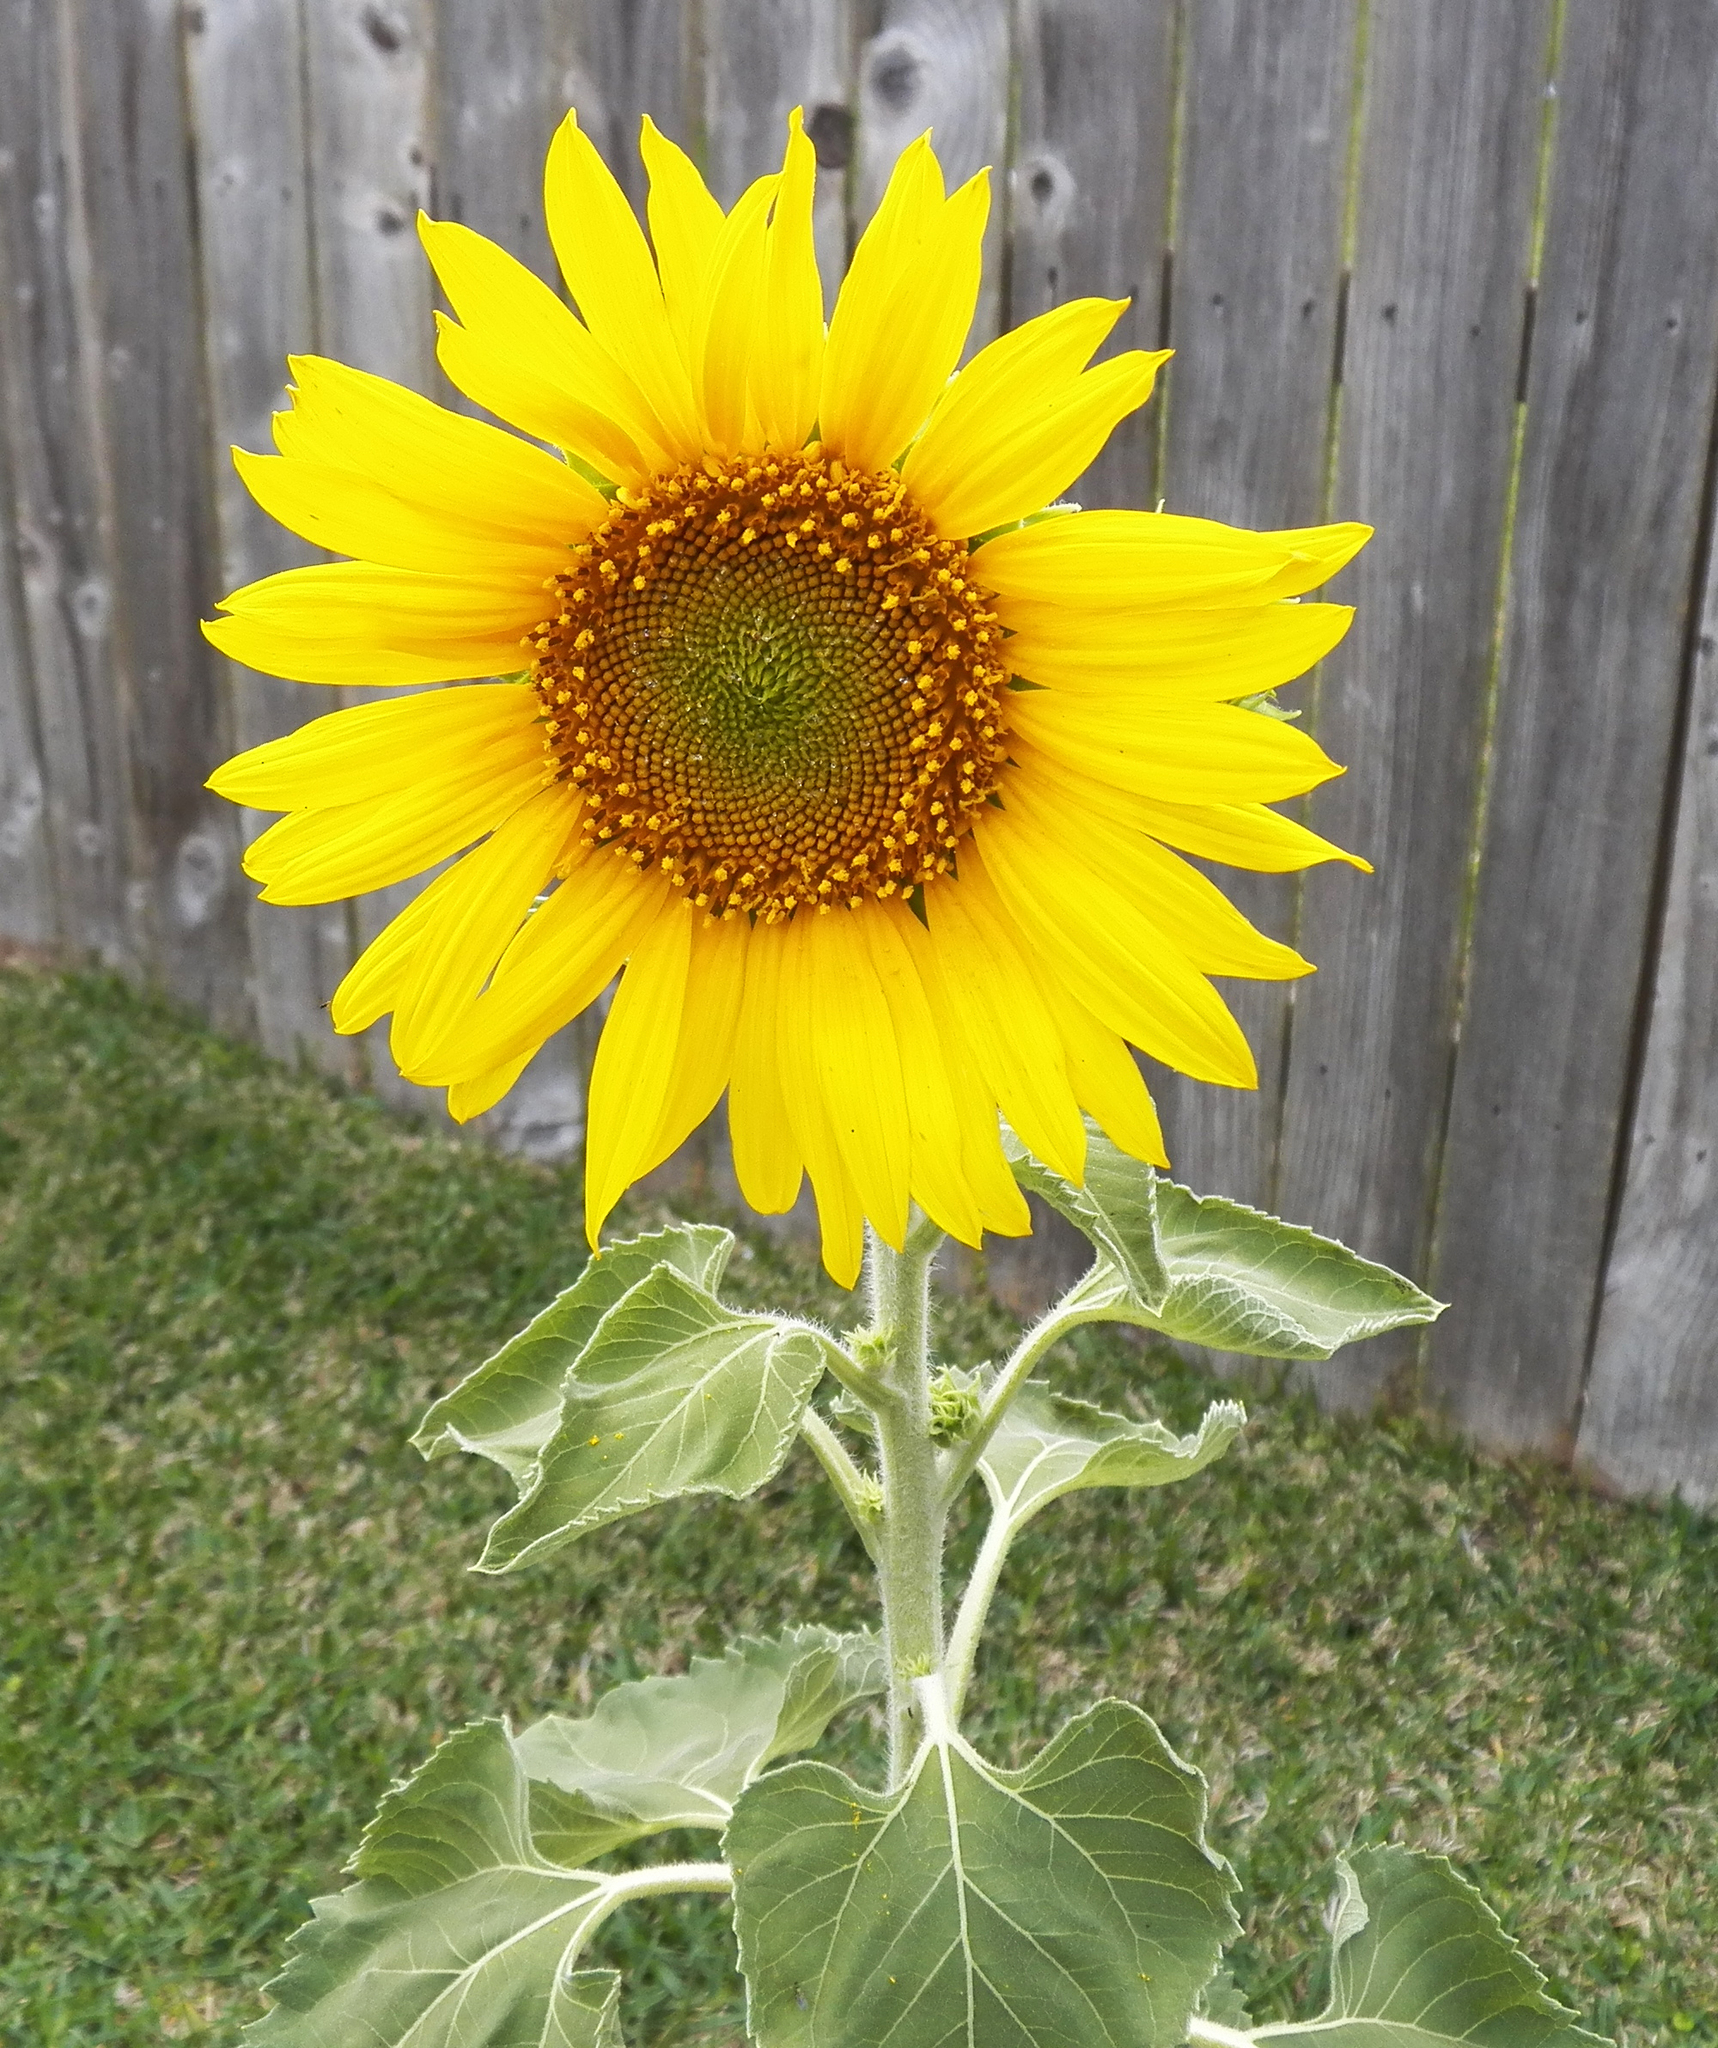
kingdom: Plantae
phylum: Tracheophyta
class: Magnoliopsida
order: Asterales
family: Asteraceae
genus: Helianthus
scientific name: Helianthus annuus
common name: Sunflower
